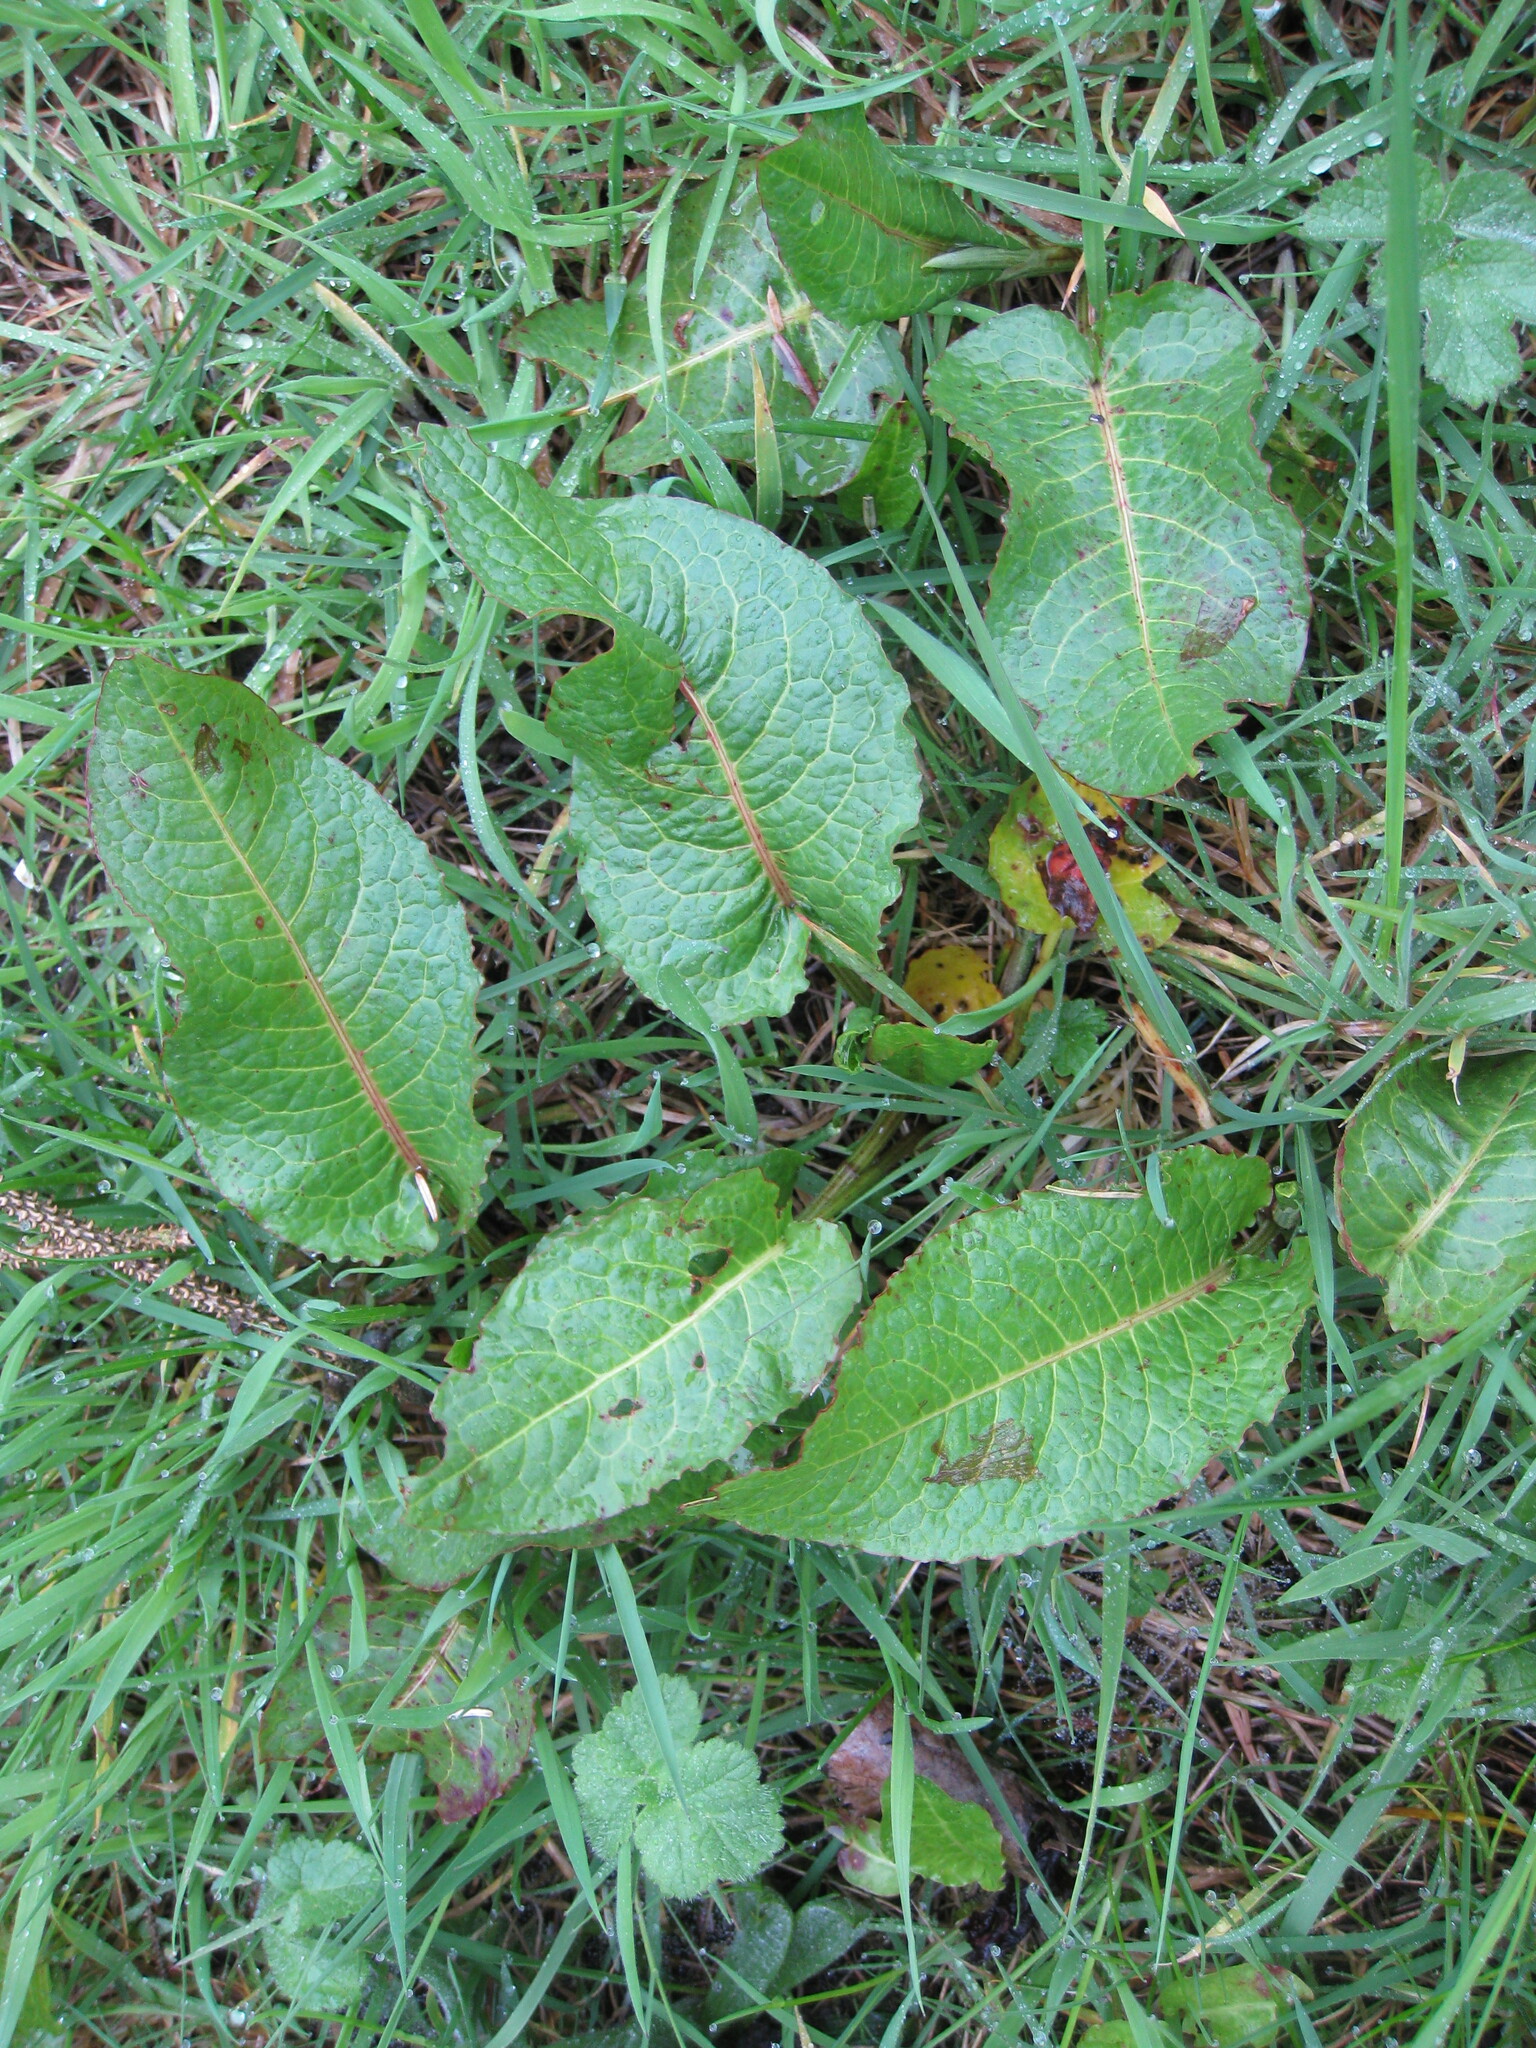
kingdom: Plantae
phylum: Tracheophyta
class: Magnoliopsida
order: Caryophyllales
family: Polygonaceae
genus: Rumex
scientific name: Rumex obtusifolius
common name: Bitter dock
